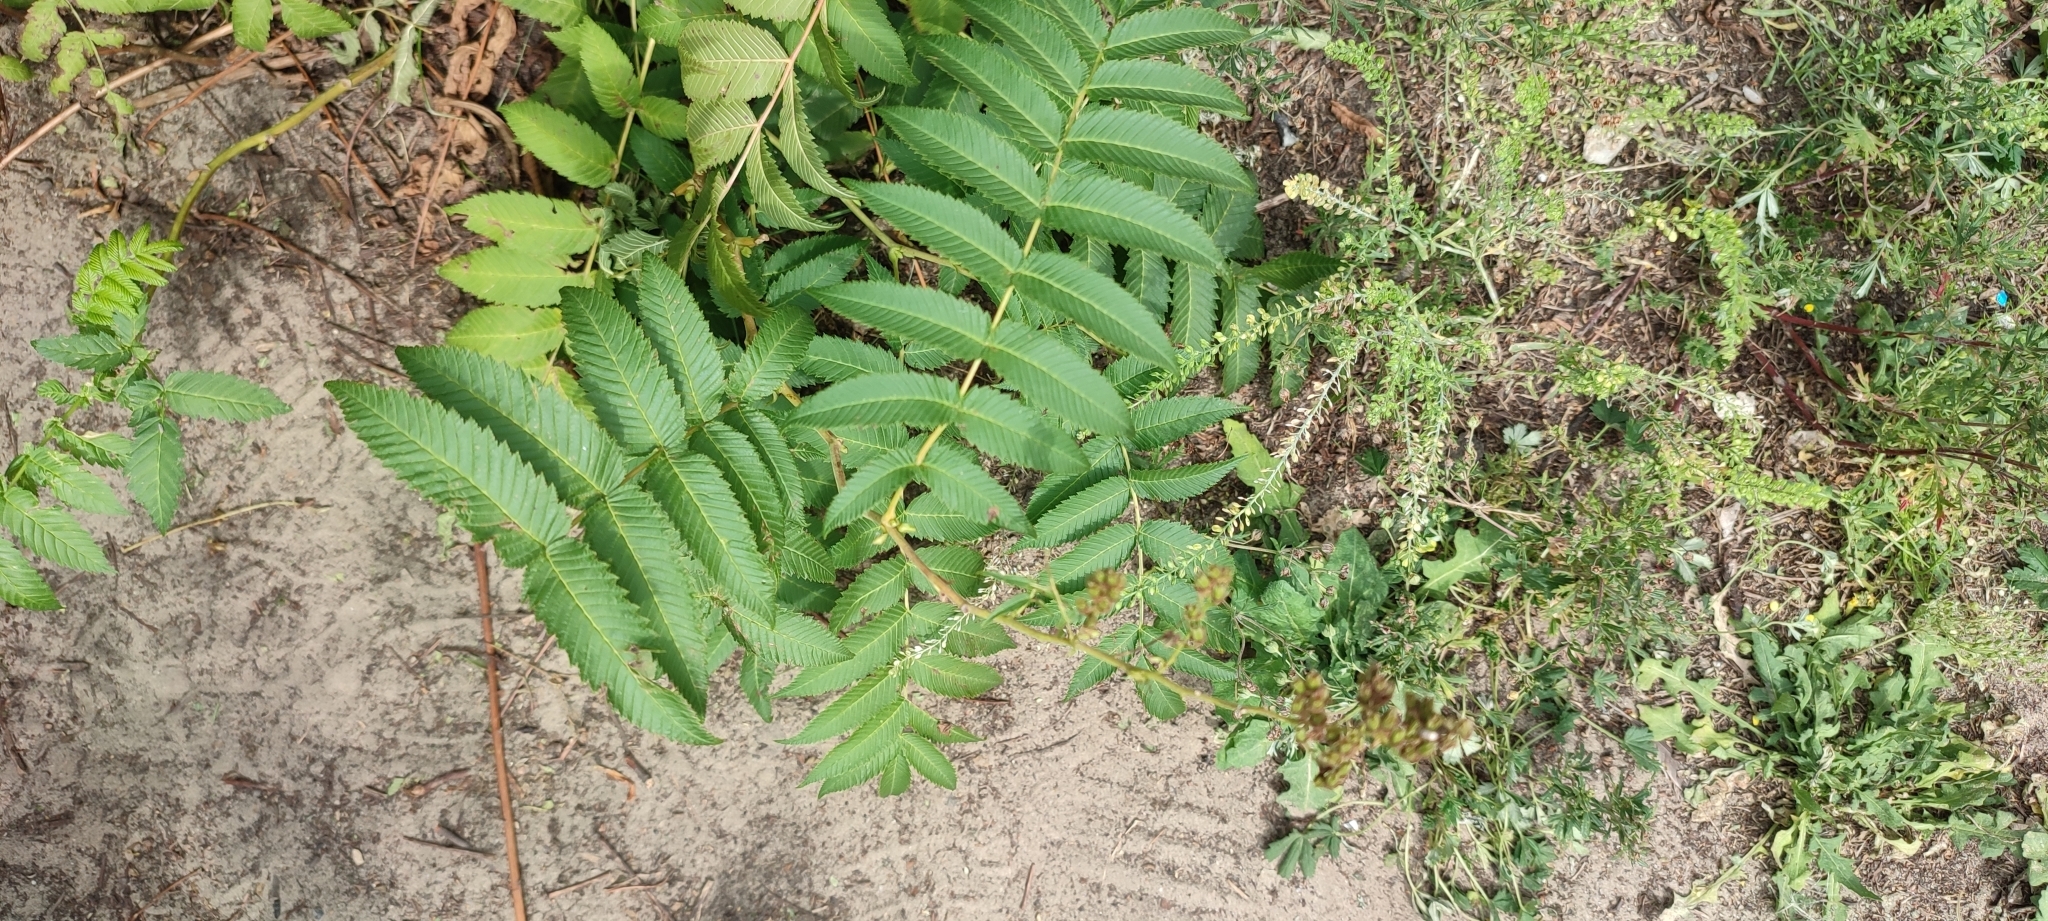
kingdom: Plantae
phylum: Tracheophyta
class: Magnoliopsida
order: Rosales
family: Rosaceae
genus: Sorbaria
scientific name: Sorbaria sorbifolia
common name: False spiraea
